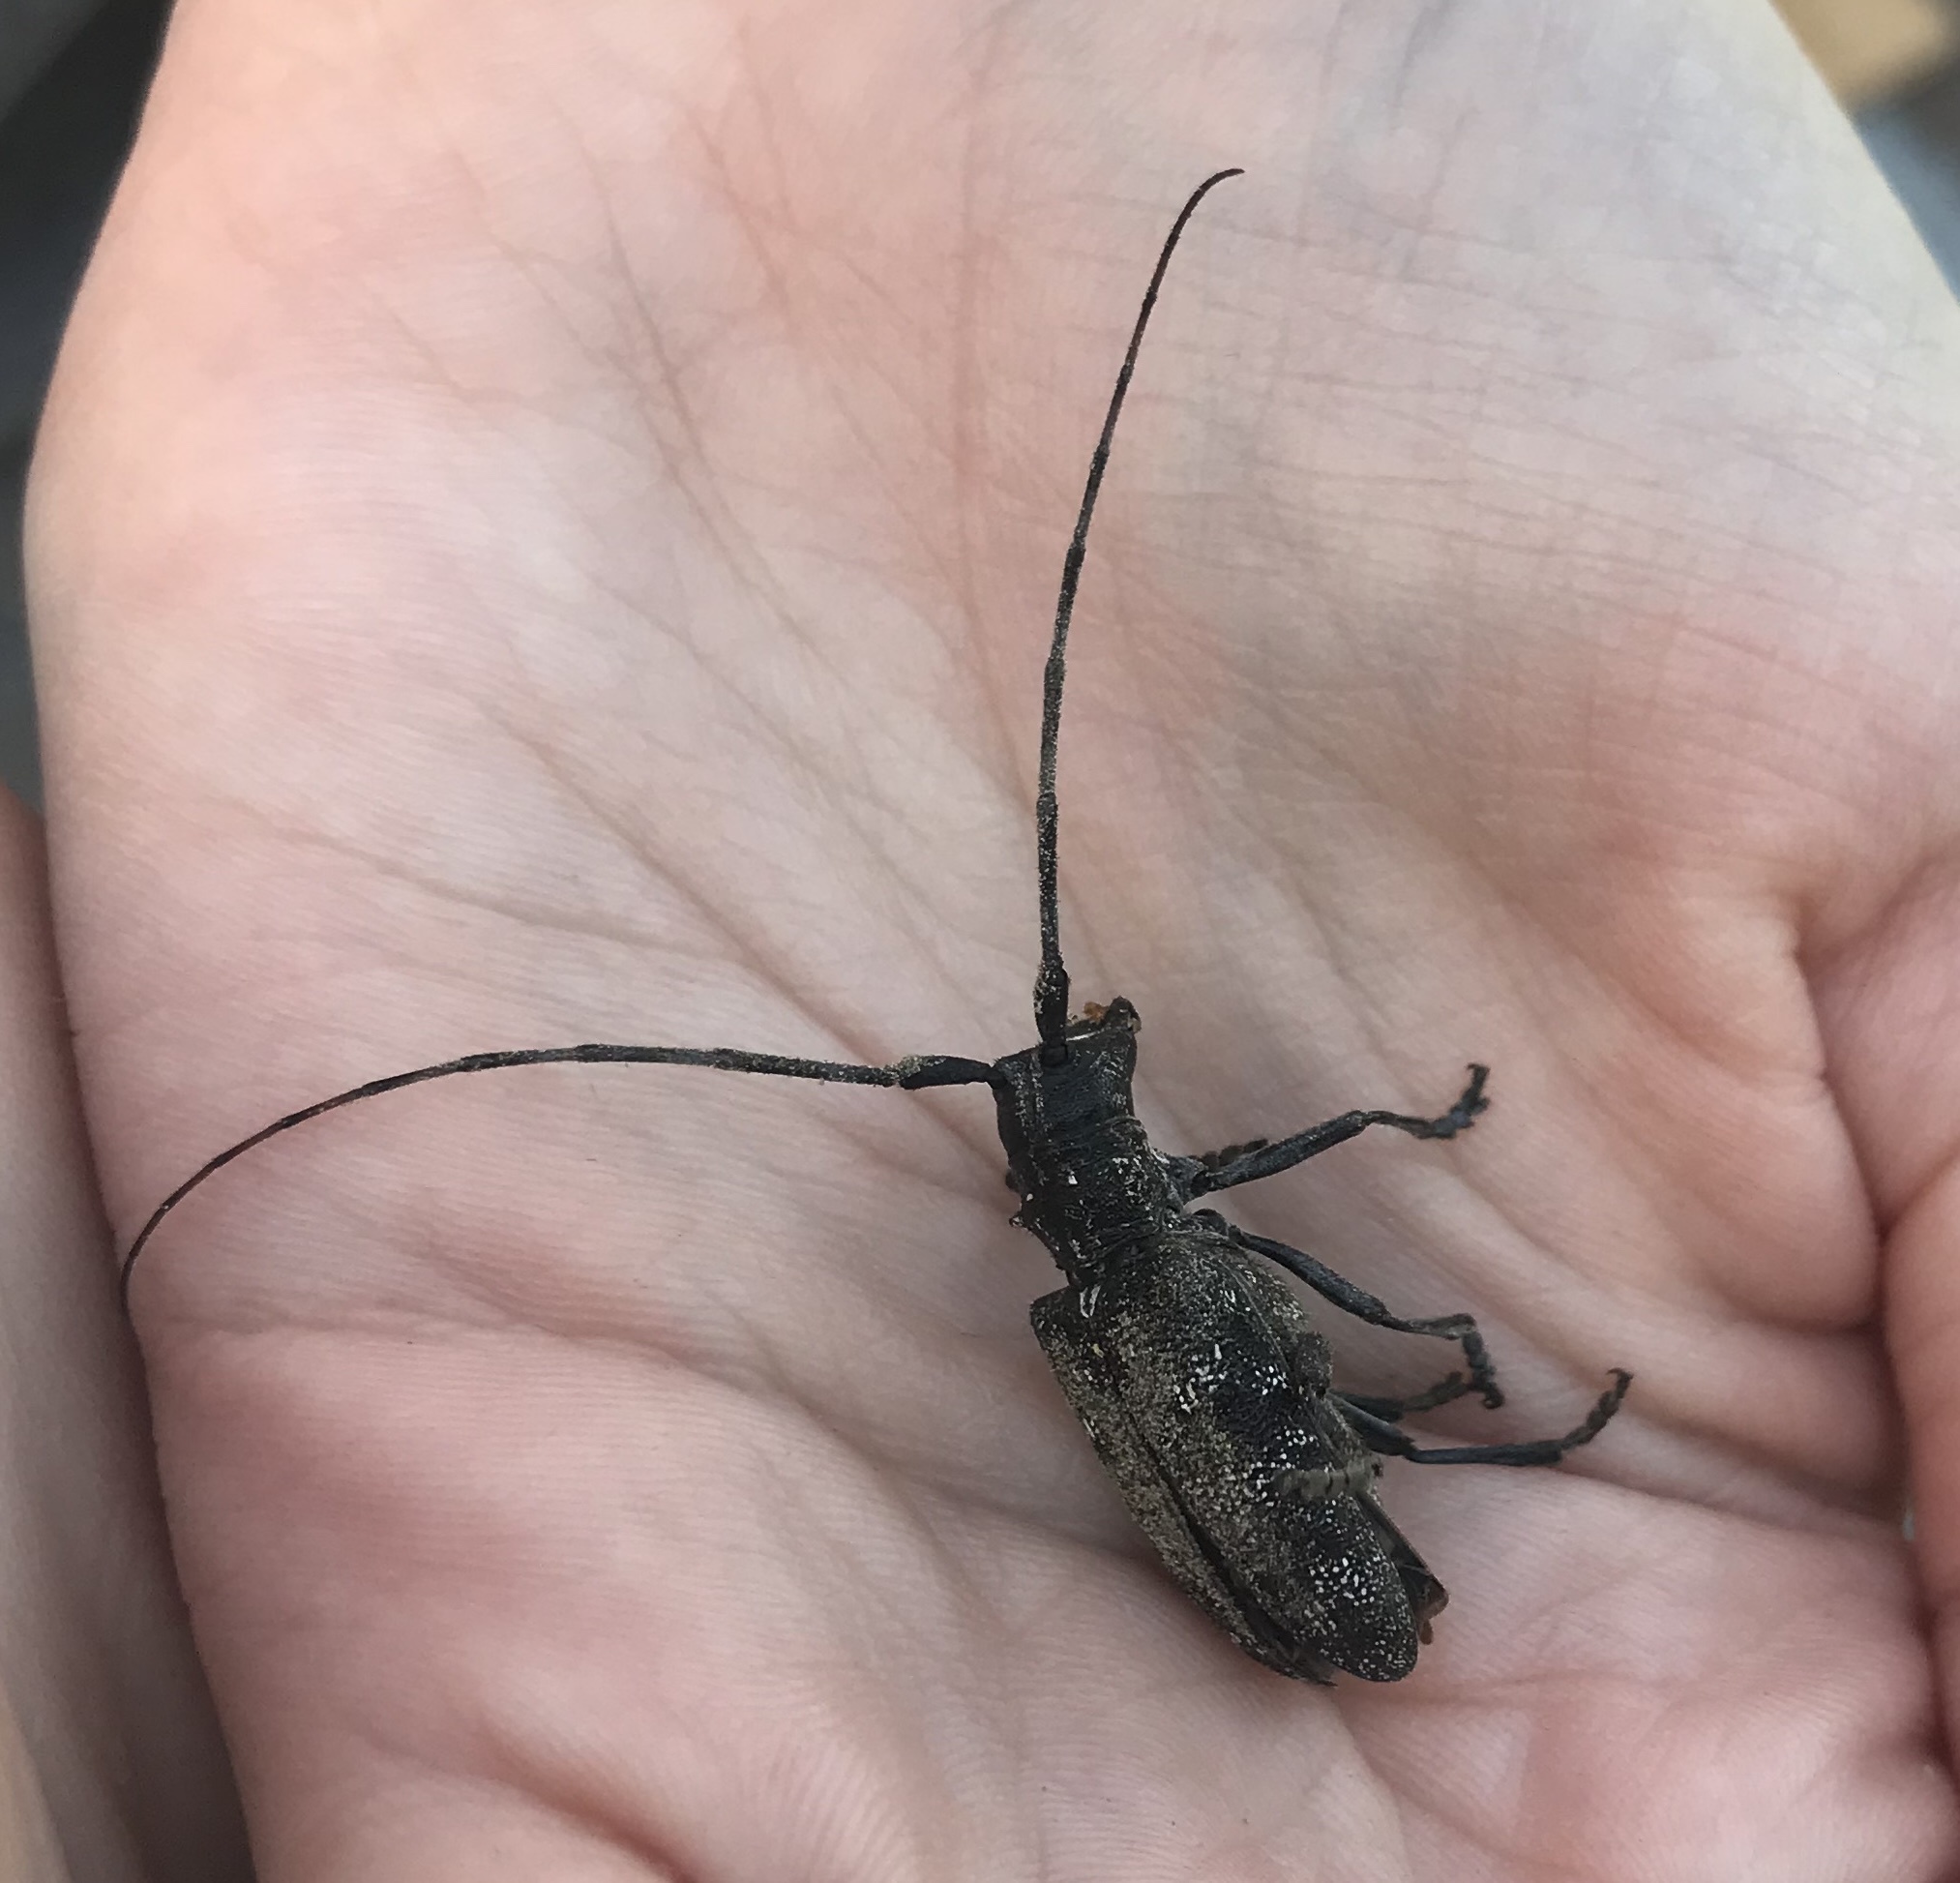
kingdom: Animalia
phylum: Arthropoda
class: Insecta
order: Coleoptera
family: Cerambycidae
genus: Monochamus
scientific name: Monochamus clamator
